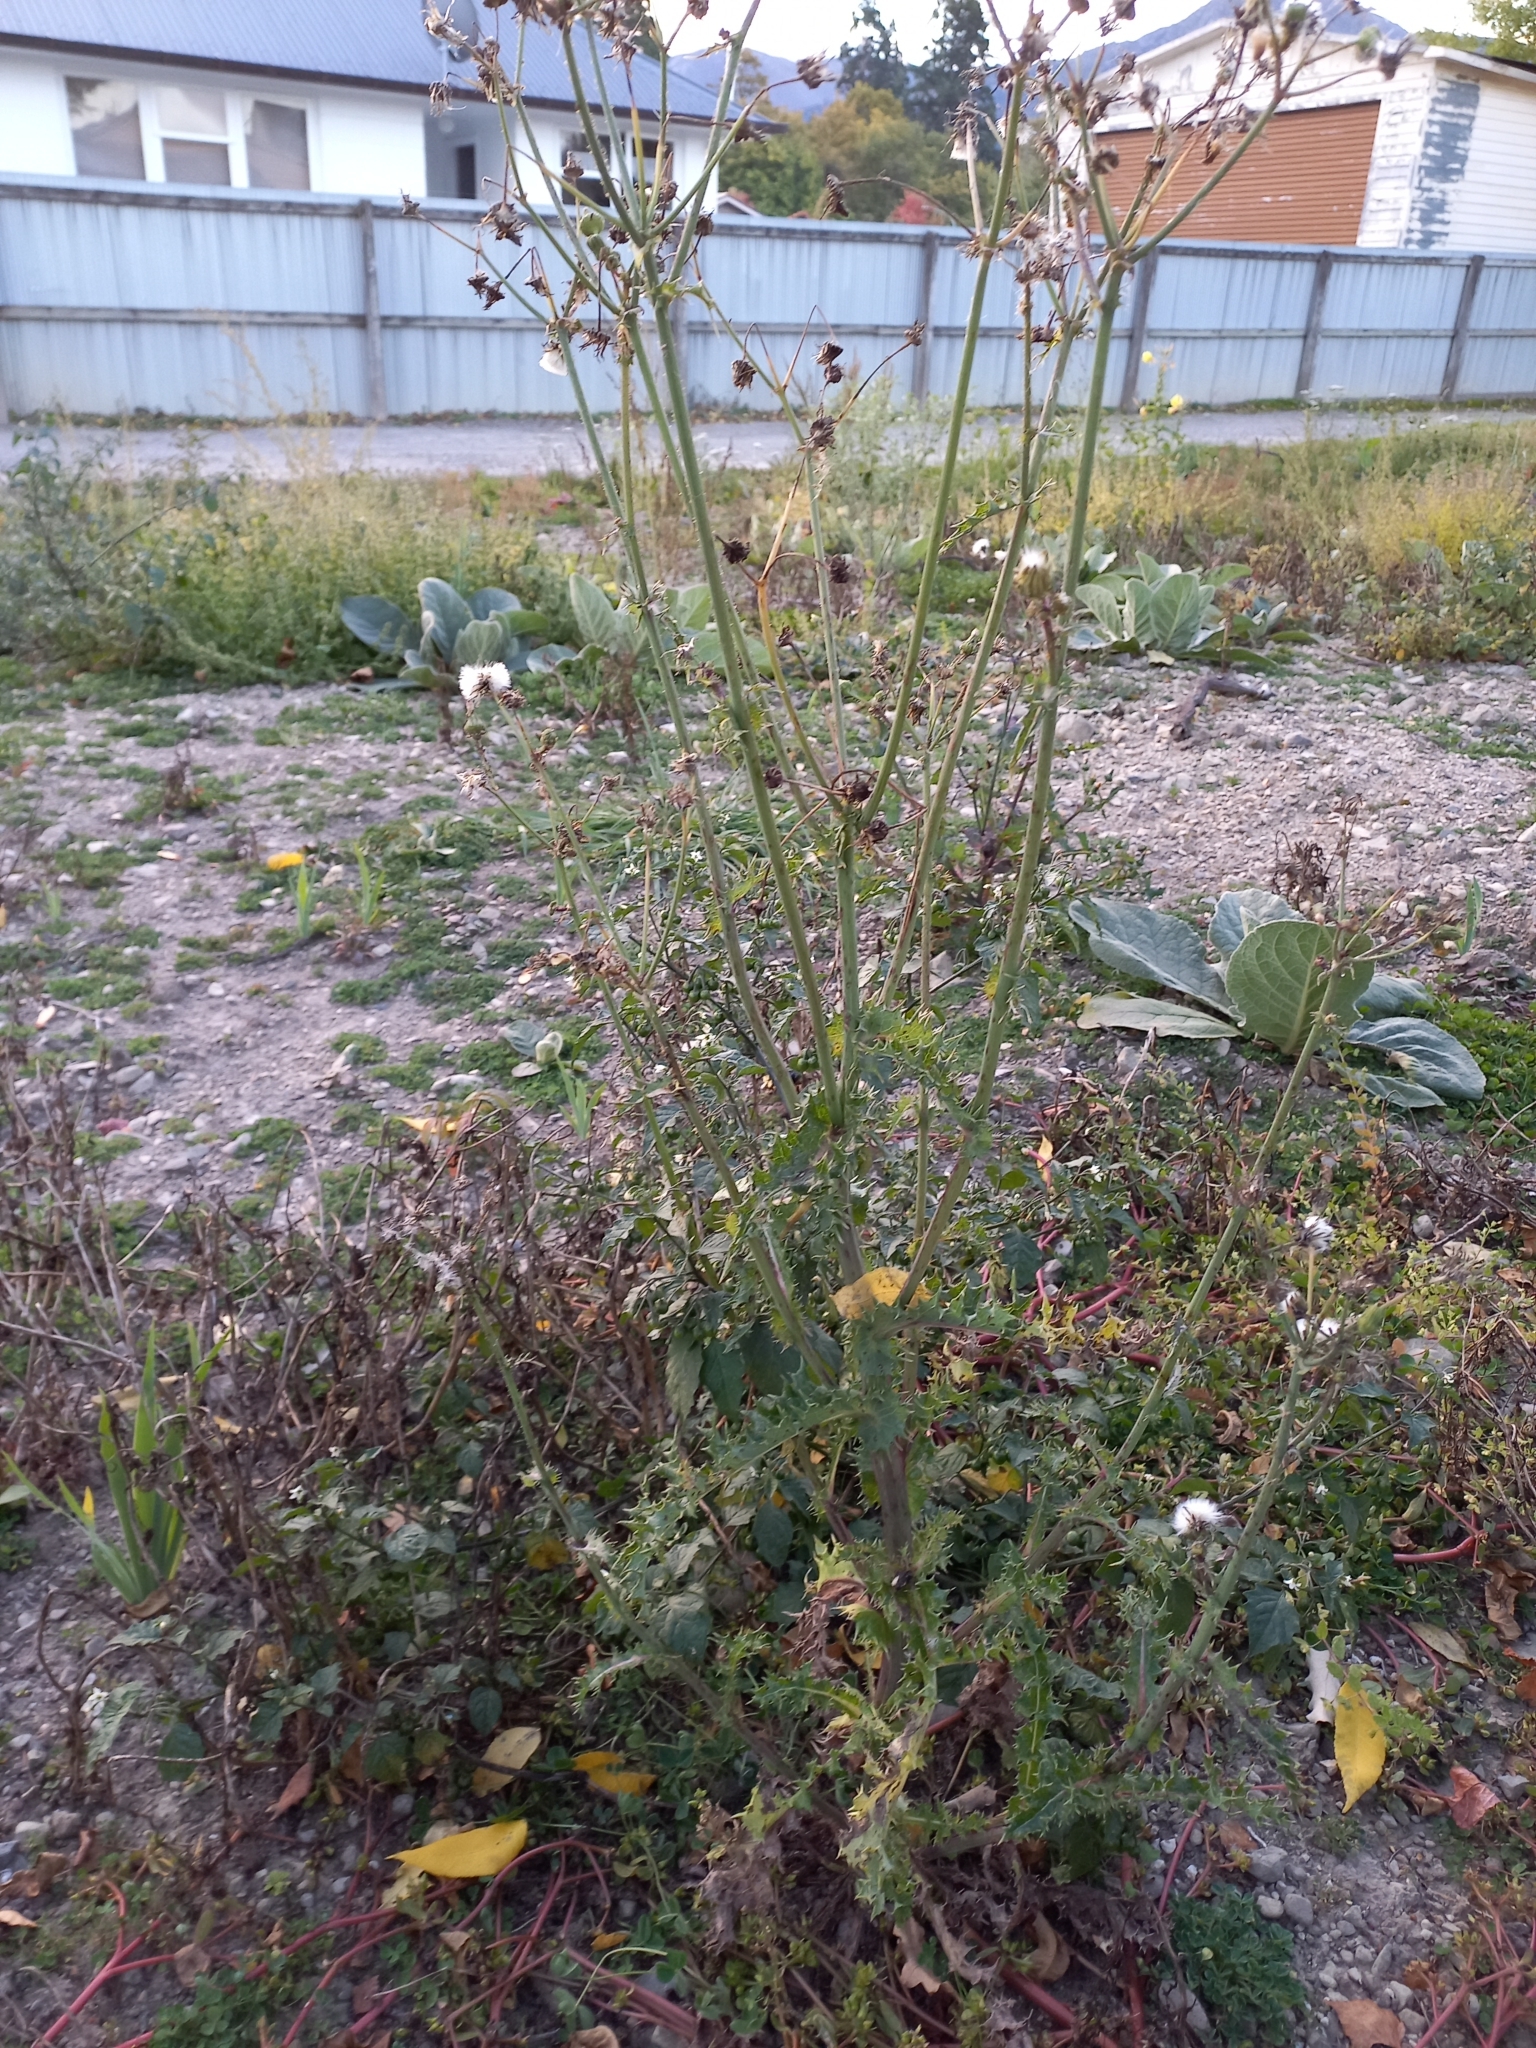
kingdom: Plantae
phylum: Tracheophyta
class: Magnoliopsida
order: Asterales
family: Asteraceae
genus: Sonchus
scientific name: Sonchus asper
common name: Prickly sow-thistle
